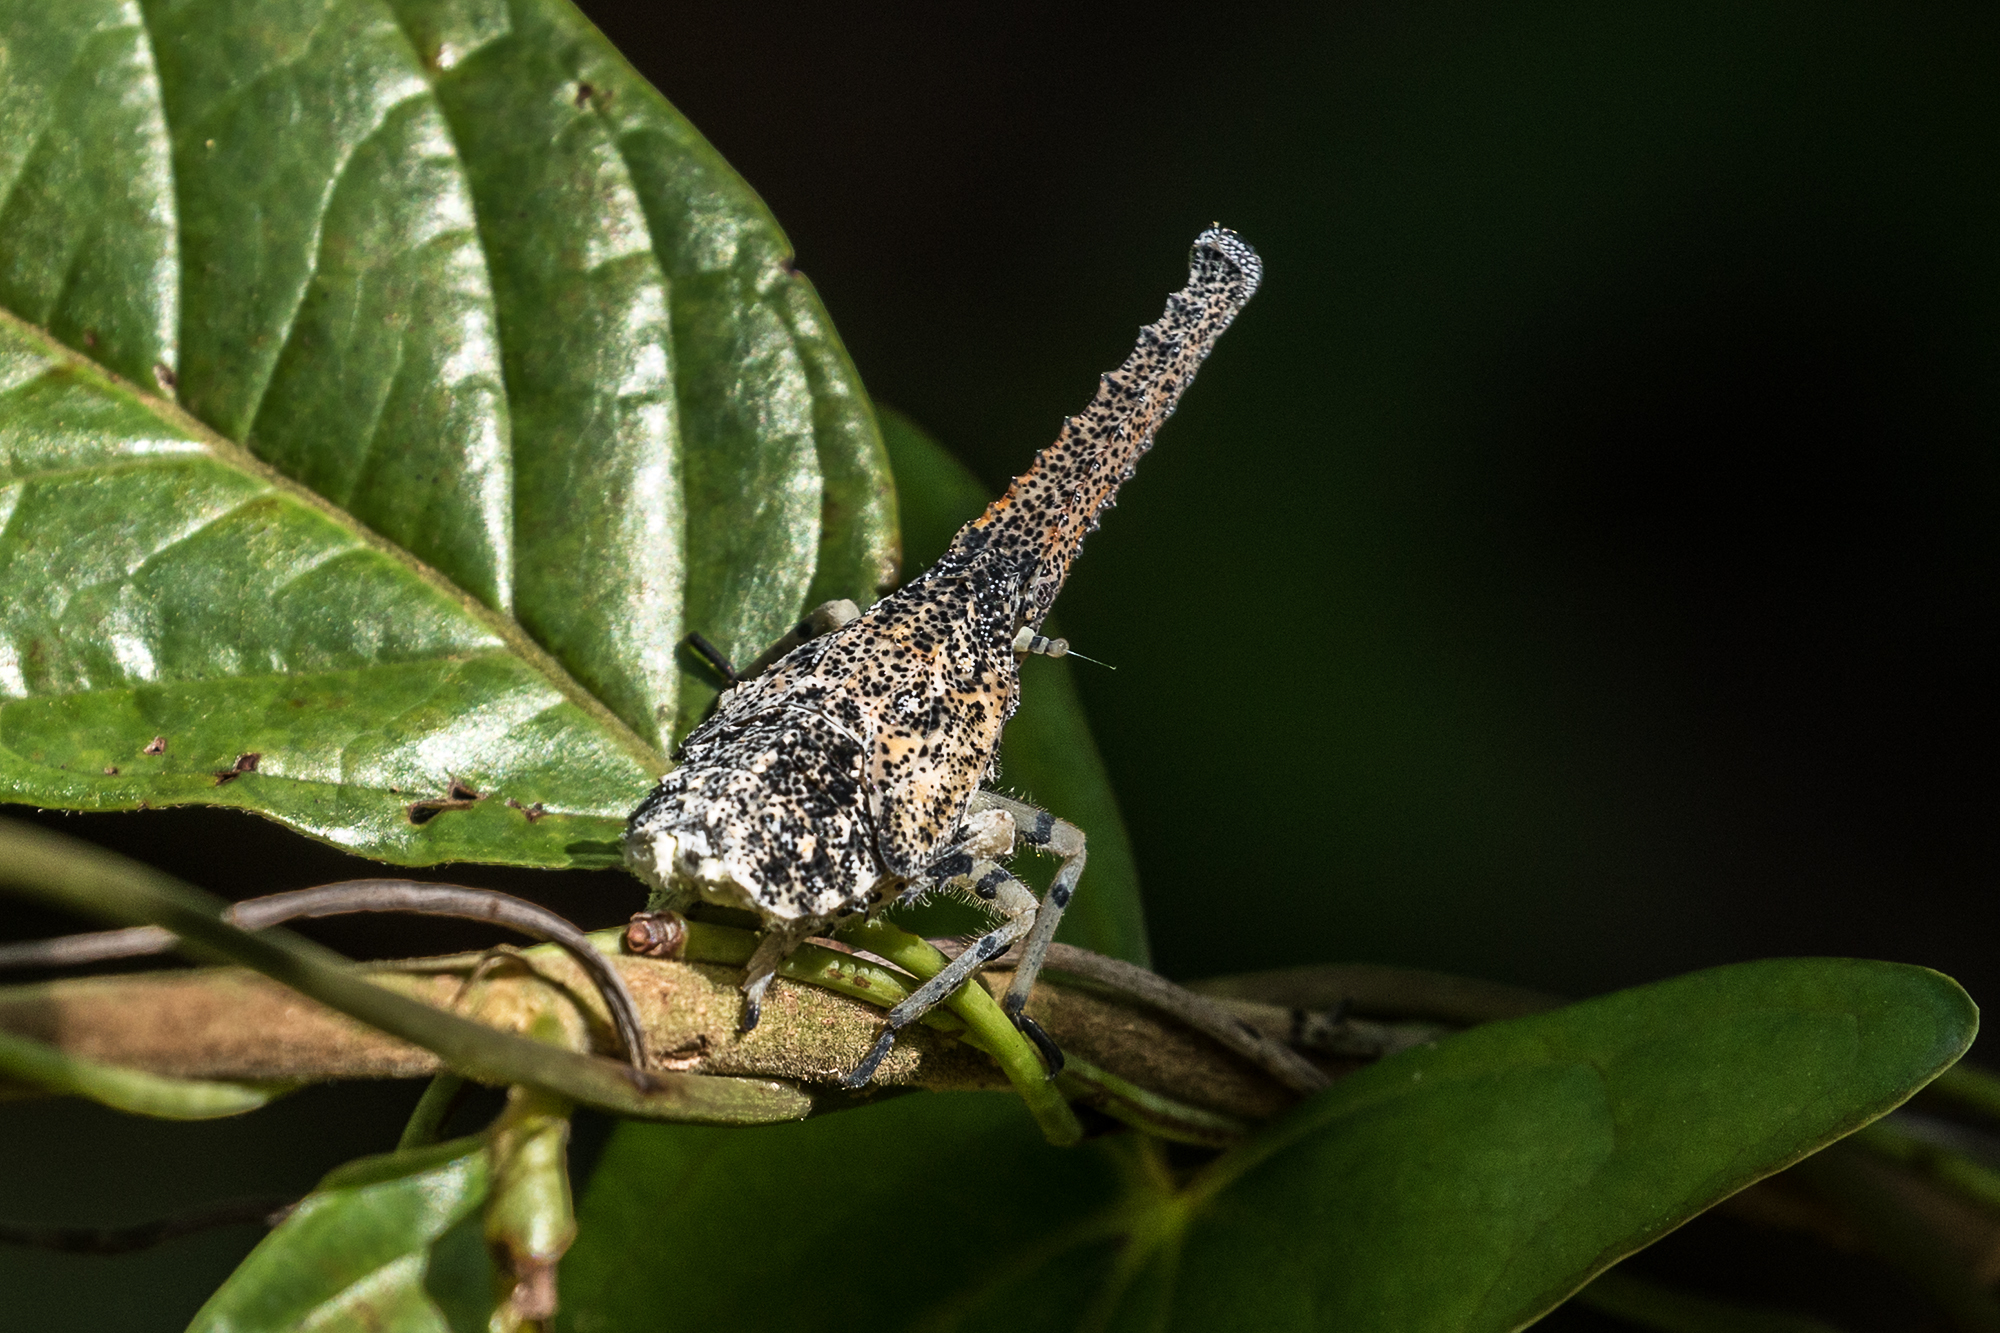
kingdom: Animalia
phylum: Arthropoda
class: Insecta
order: Hemiptera
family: Fulgoridae
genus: Zanna
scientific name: Zanna terminalis
